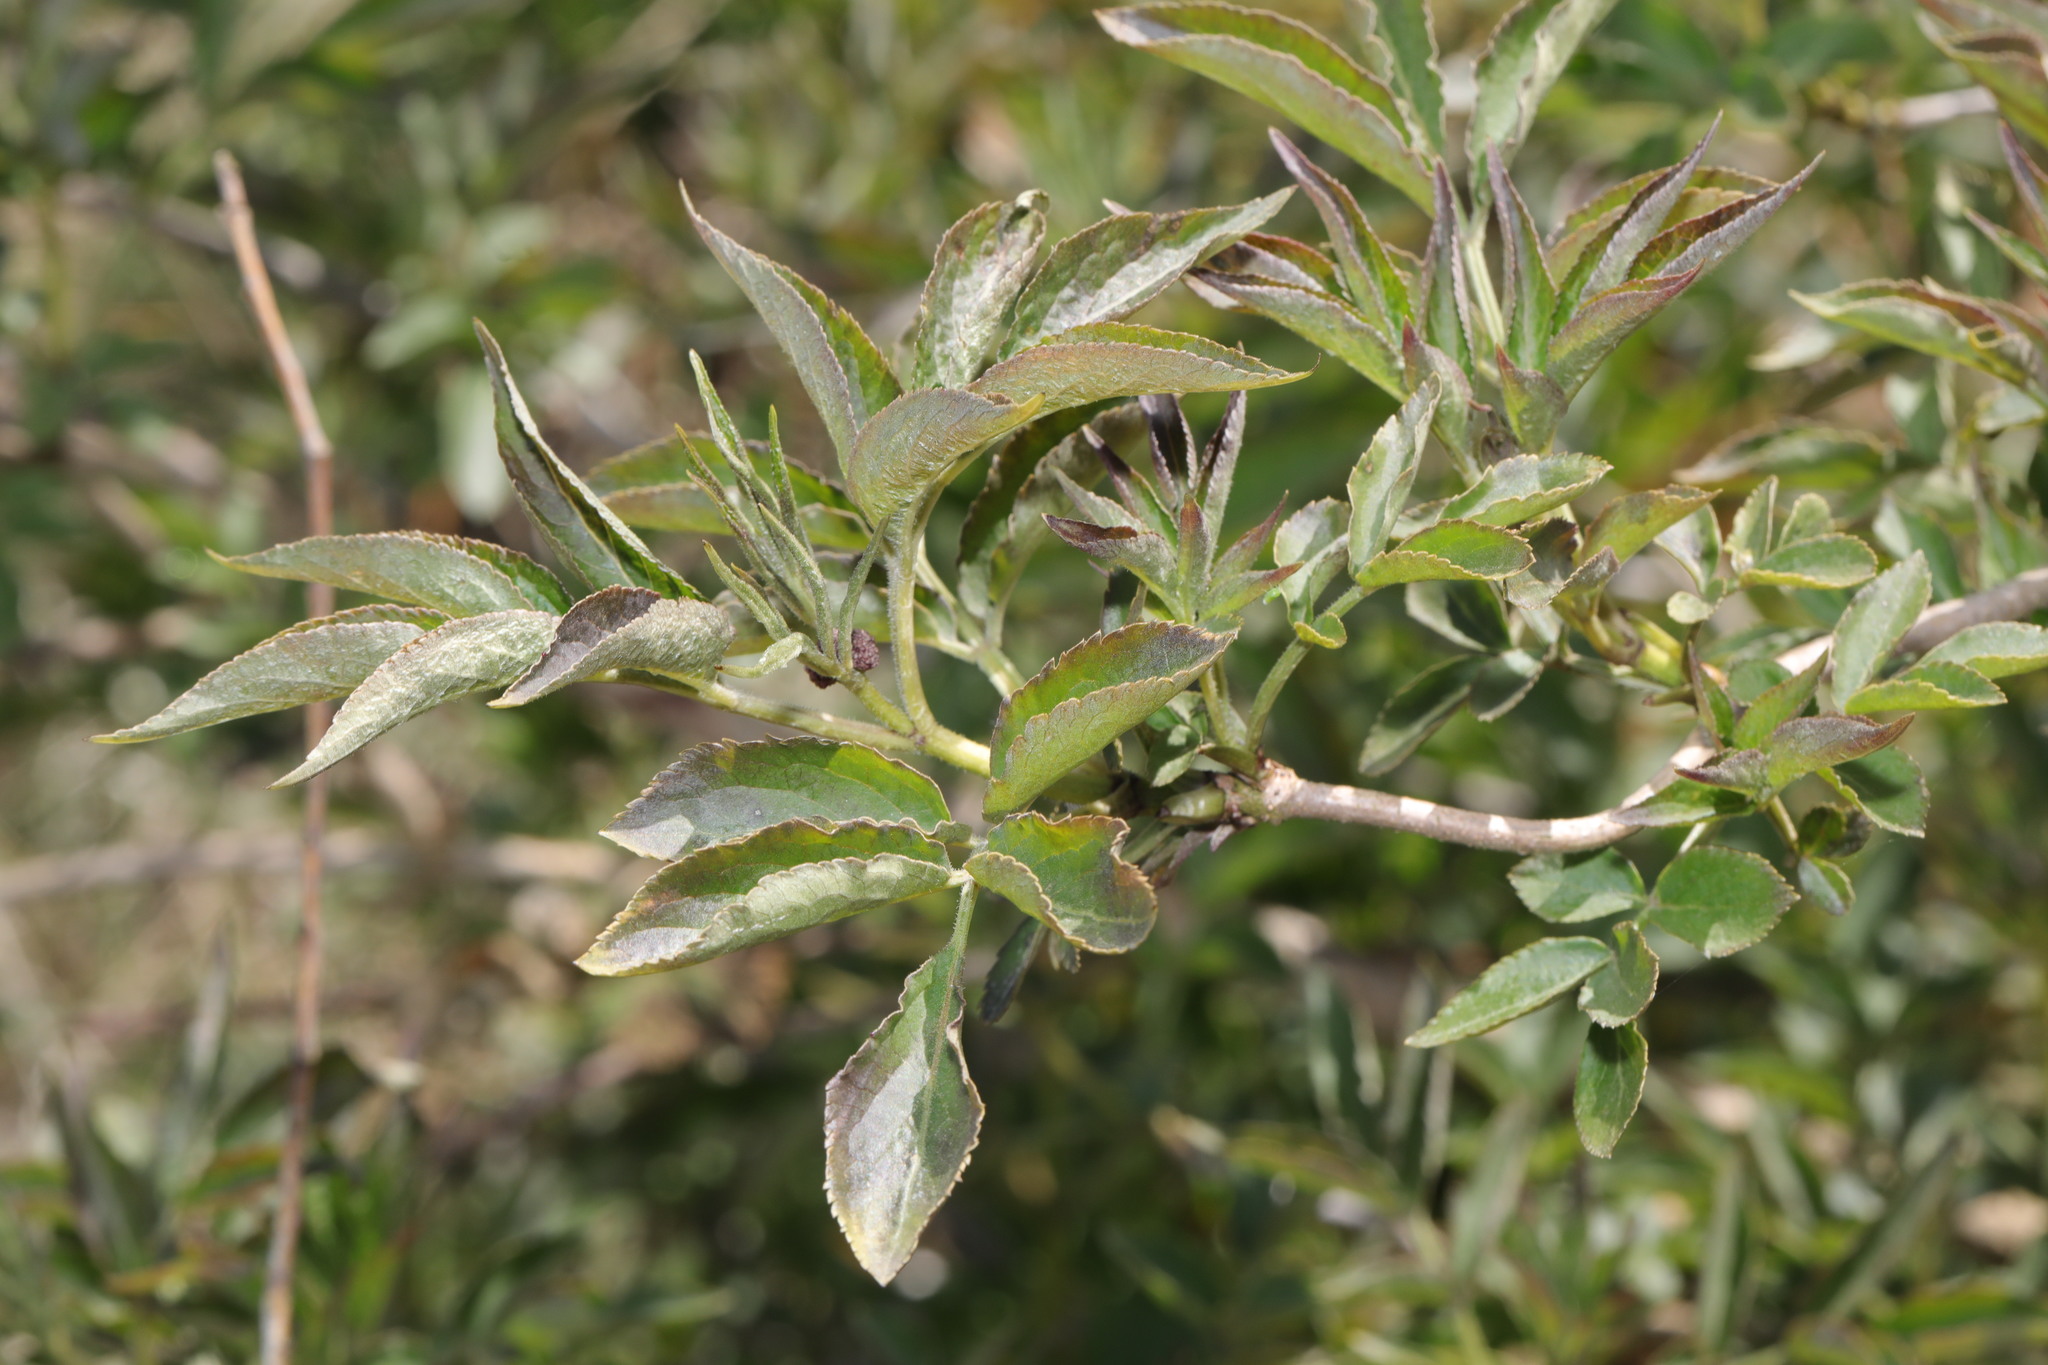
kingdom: Plantae
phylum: Tracheophyta
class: Magnoliopsida
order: Dipsacales
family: Viburnaceae
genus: Sambucus
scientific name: Sambucus nigra
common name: Elder
